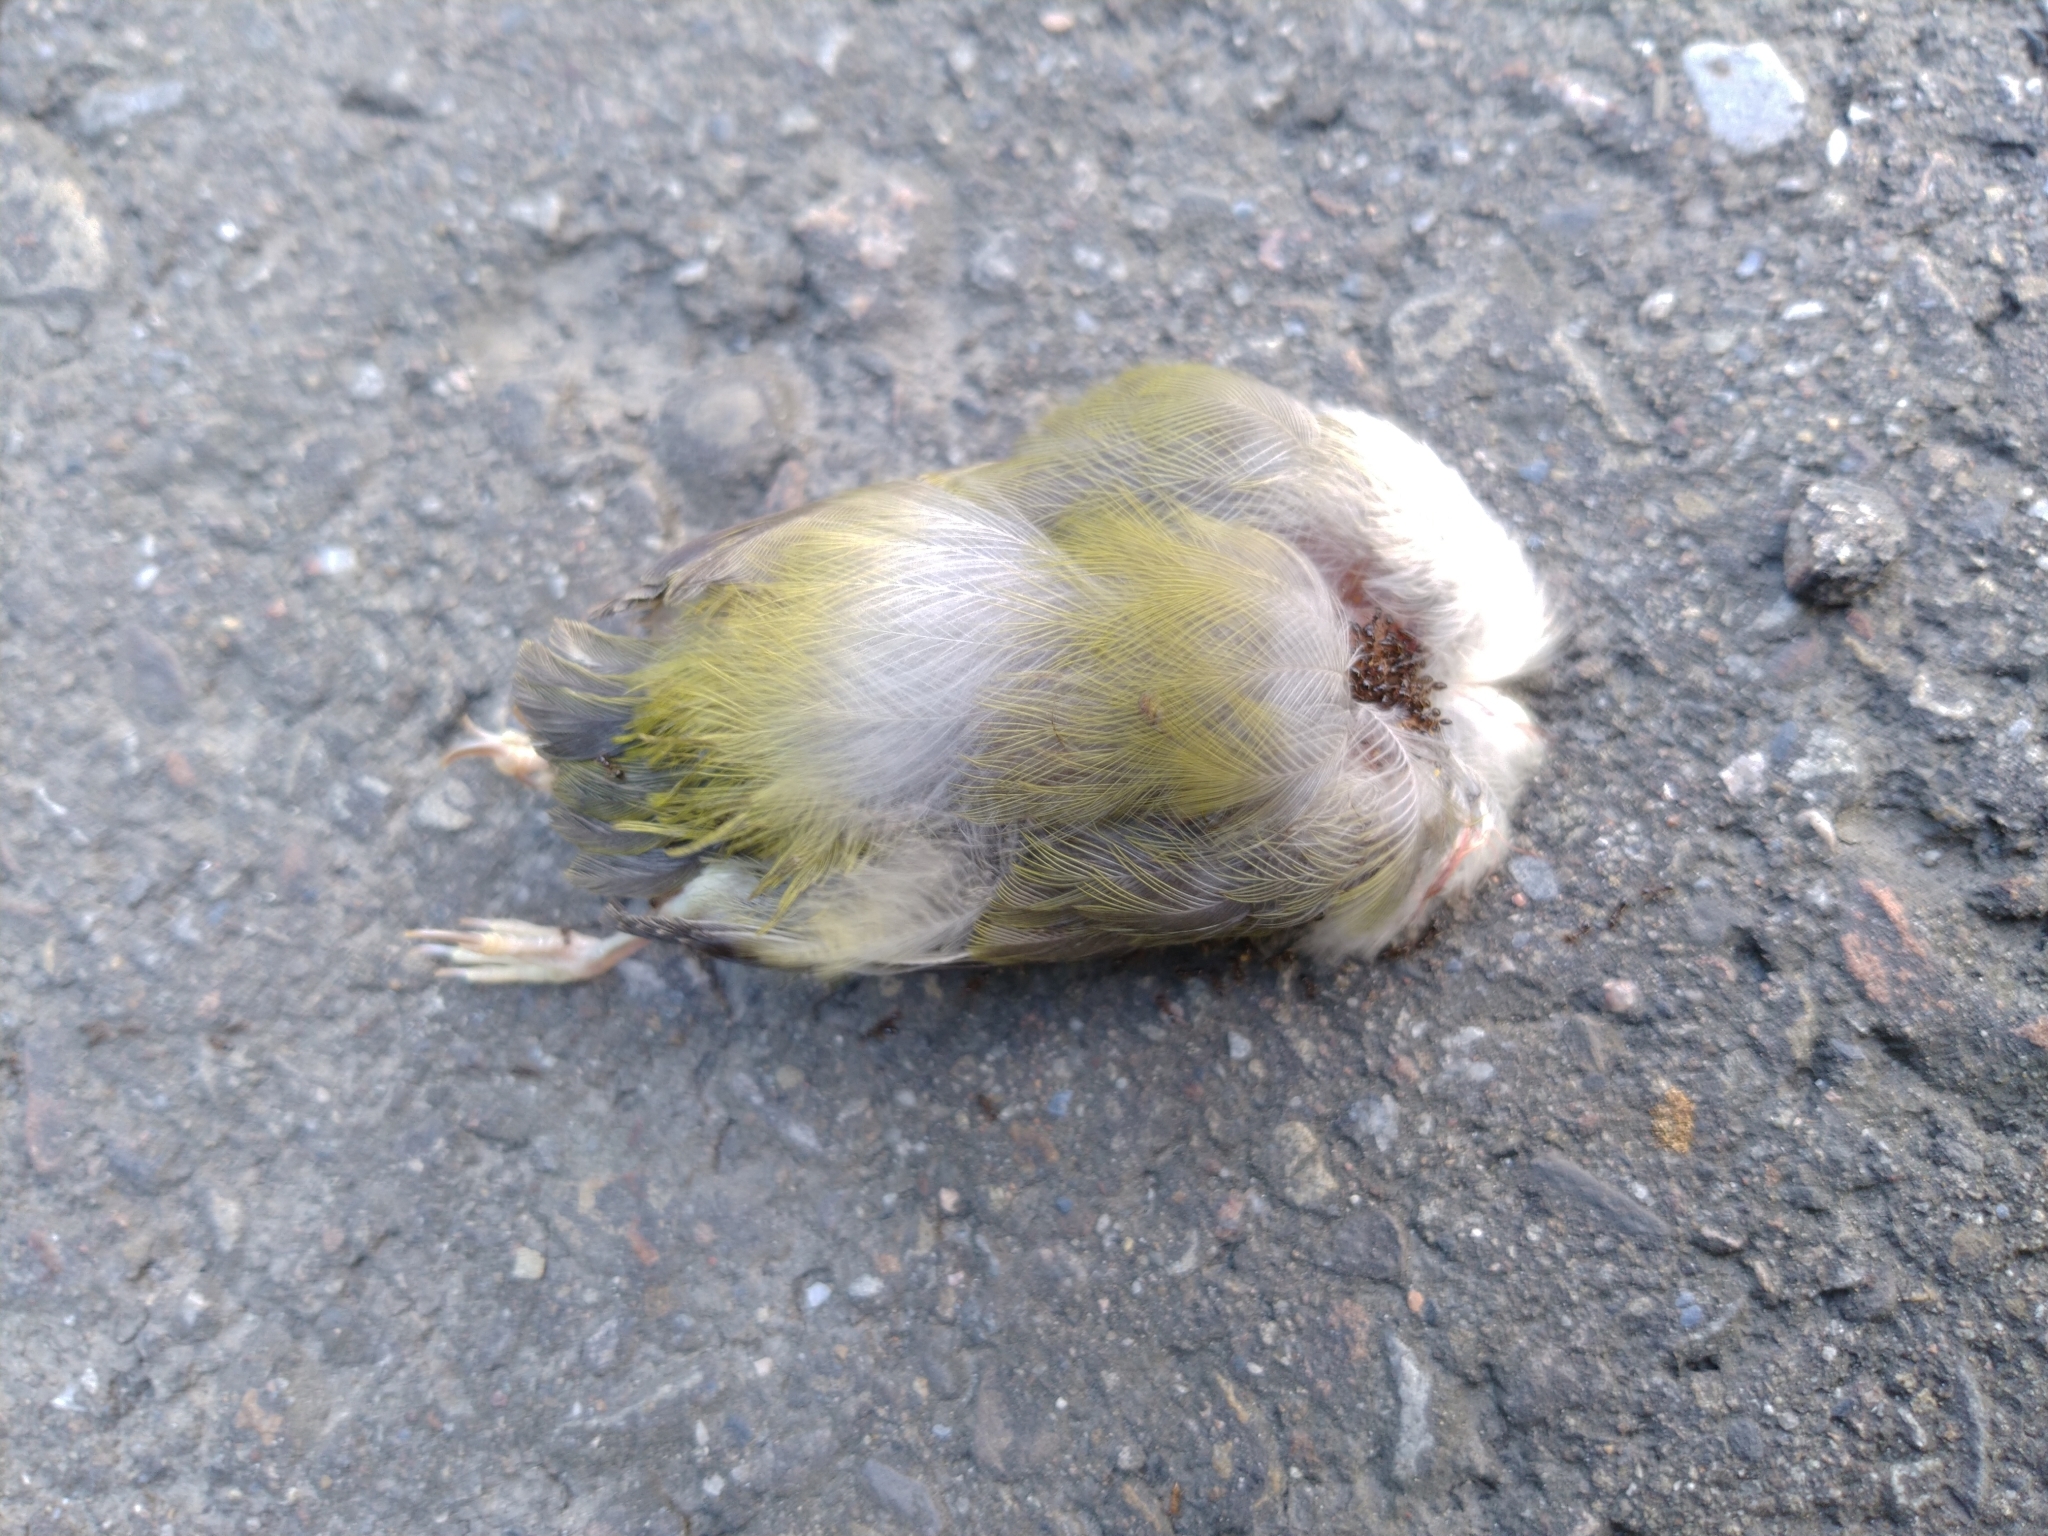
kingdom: Animalia
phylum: Chordata
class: Aves
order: Passeriformes
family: Zosteropidae
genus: Zosterops
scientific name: Zosterops simplex
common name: Swinhoe's white-eye
